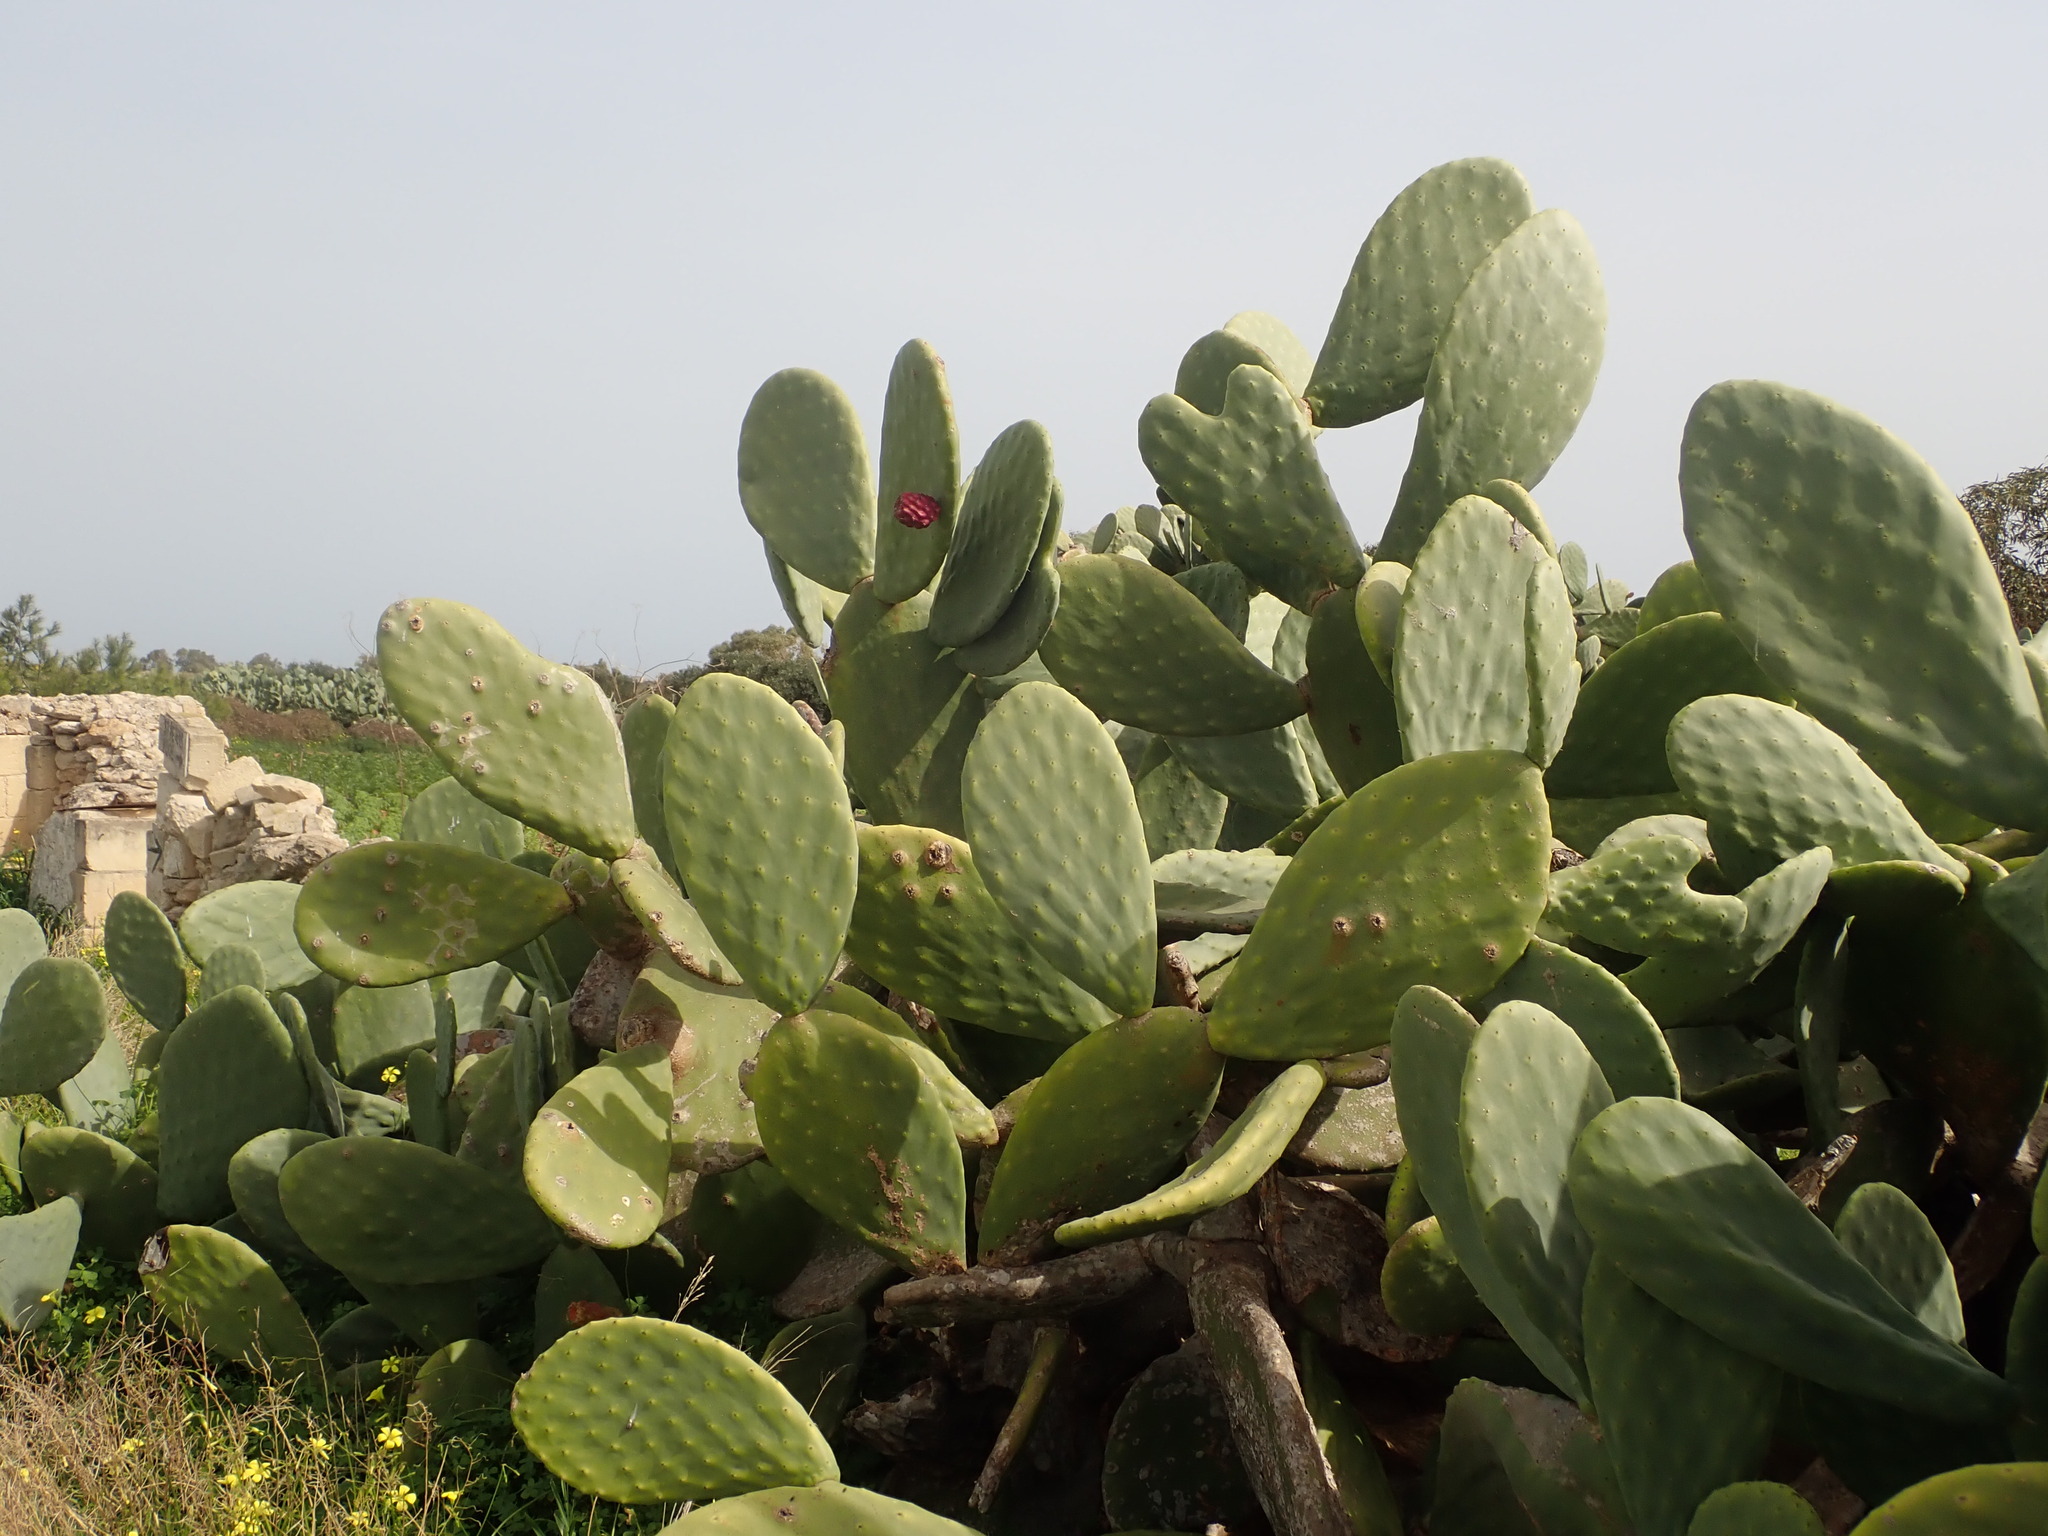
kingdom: Plantae
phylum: Tracheophyta
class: Magnoliopsida
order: Caryophyllales
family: Cactaceae
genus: Opuntia
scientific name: Opuntia ficus-indica
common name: Barbary fig
